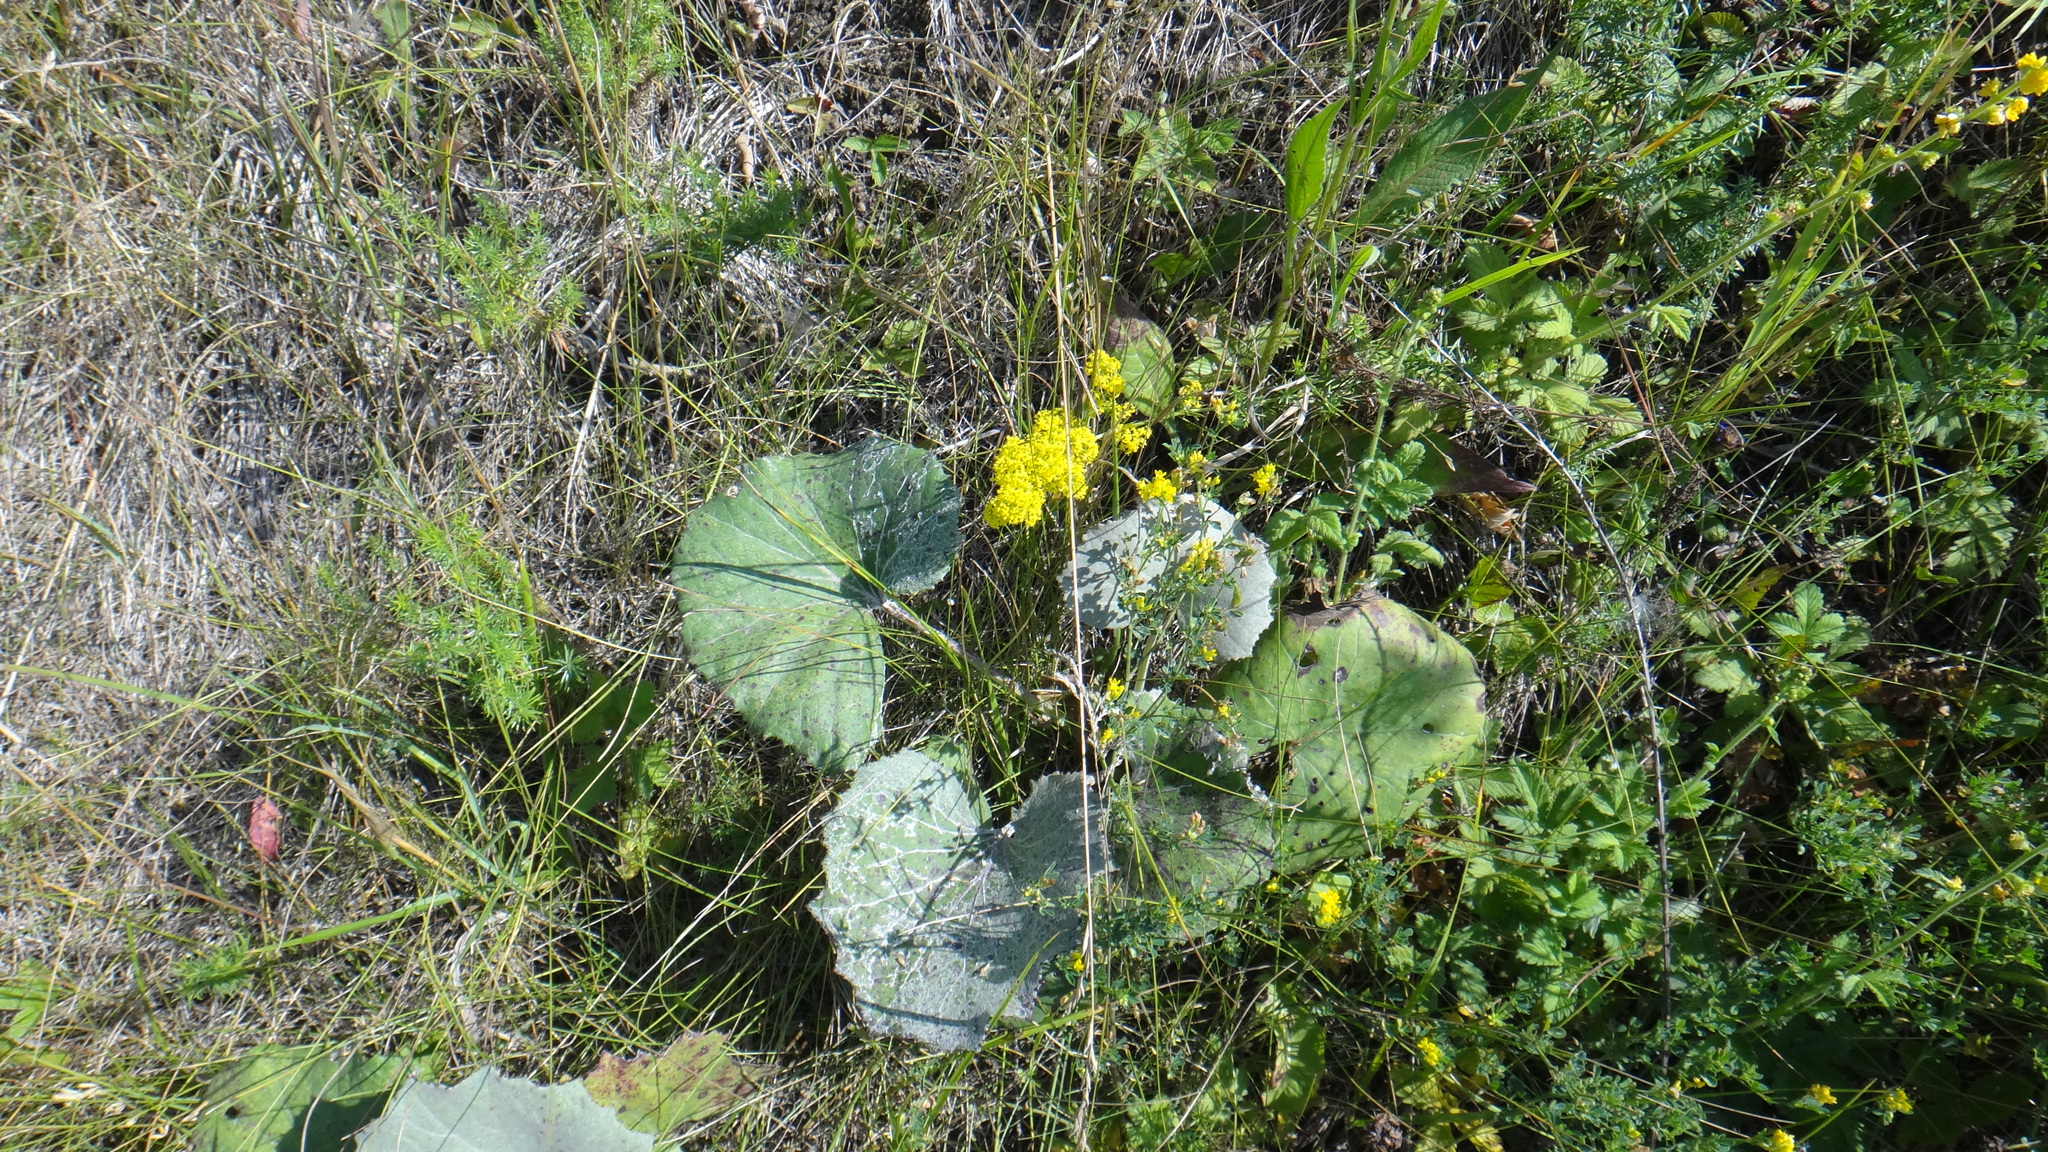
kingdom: Plantae
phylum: Tracheophyta
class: Magnoliopsida
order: Asterales
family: Asteraceae
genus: Tussilago
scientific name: Tussilago farfara
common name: Coltsfoot
